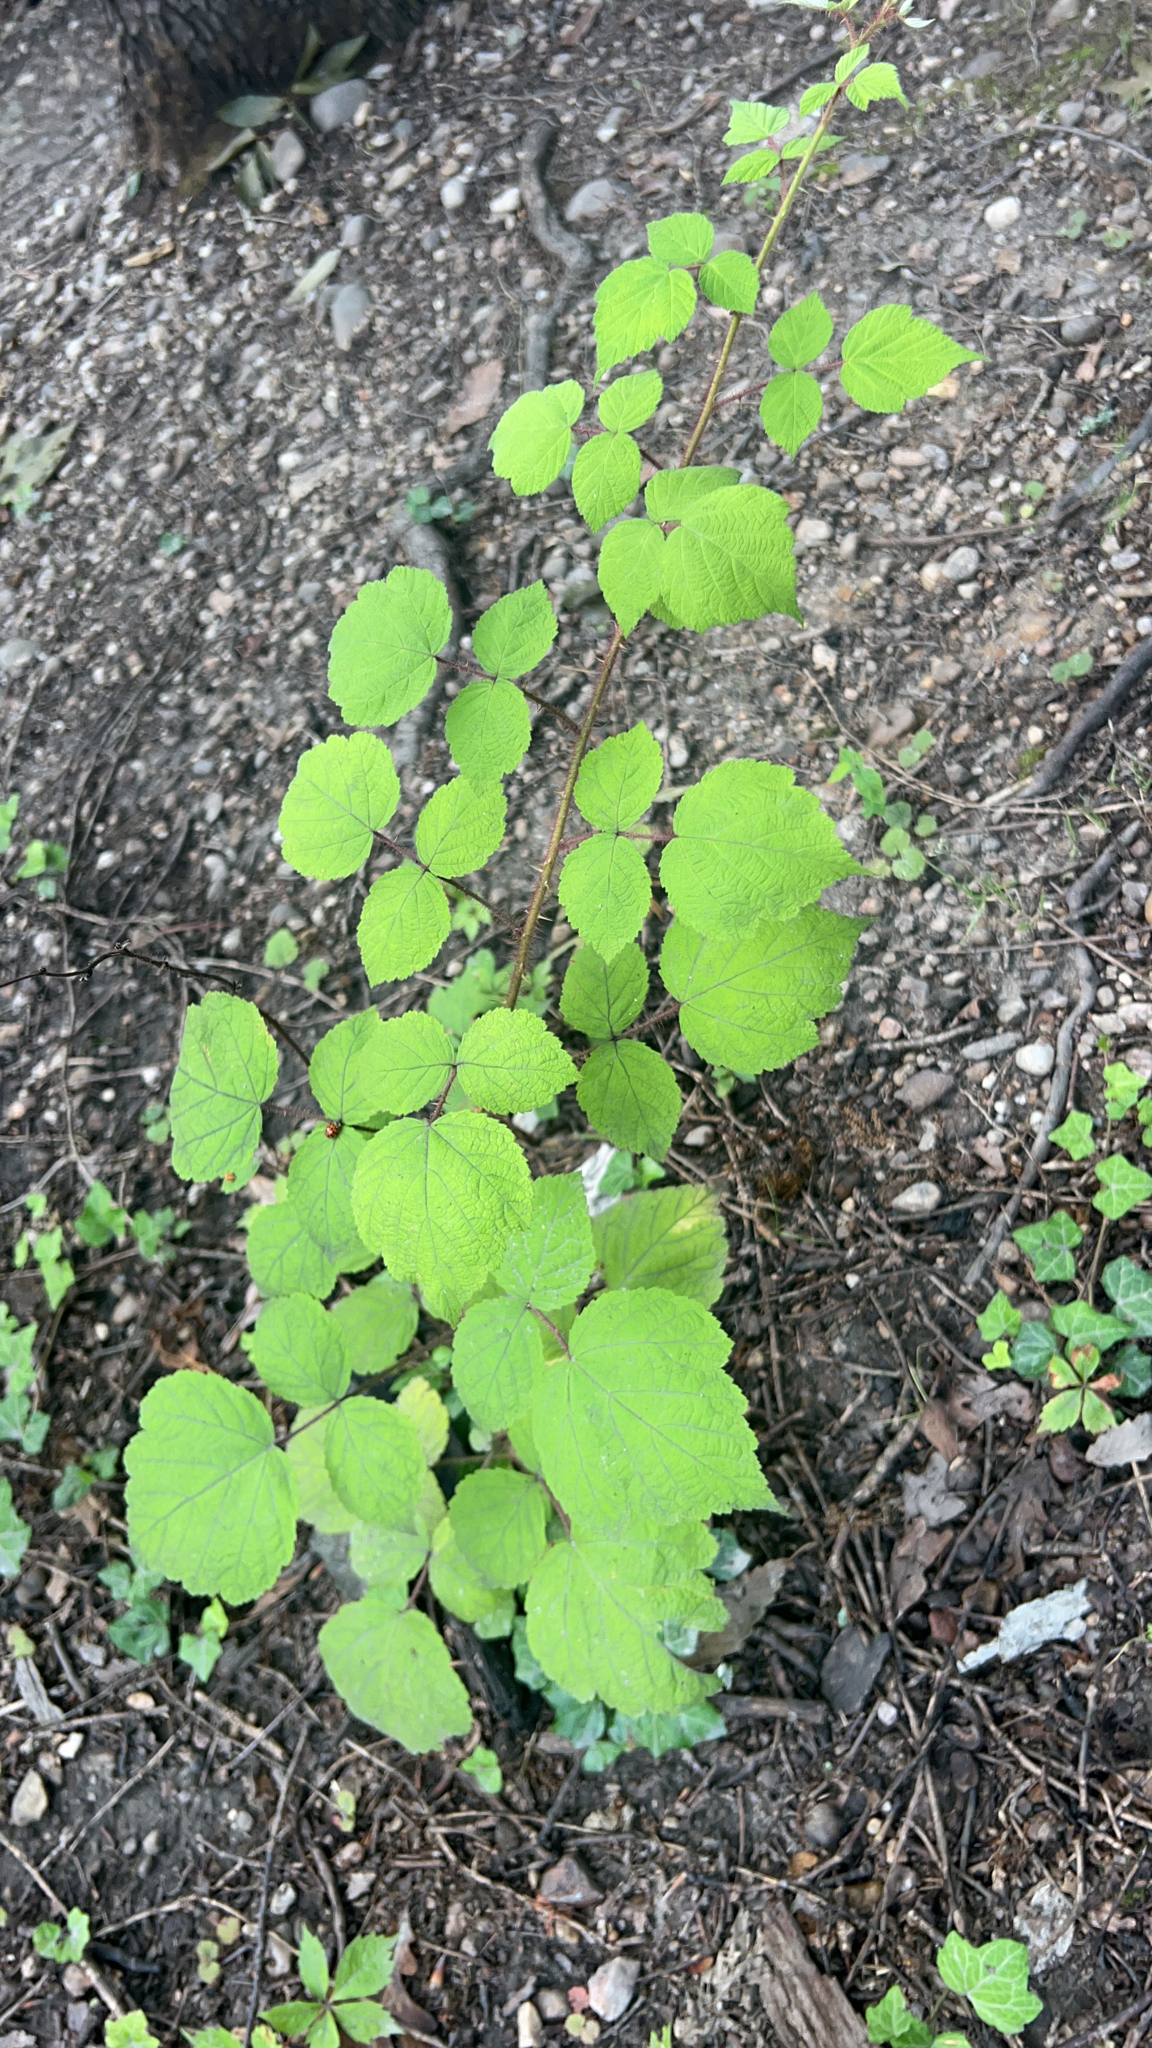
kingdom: Plantae
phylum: Tracheophyta
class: Magnoliopsida
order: Rosales
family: Rosaceae
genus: Rubus
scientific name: Rubus phoenicolasius
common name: Japanese wineberry
